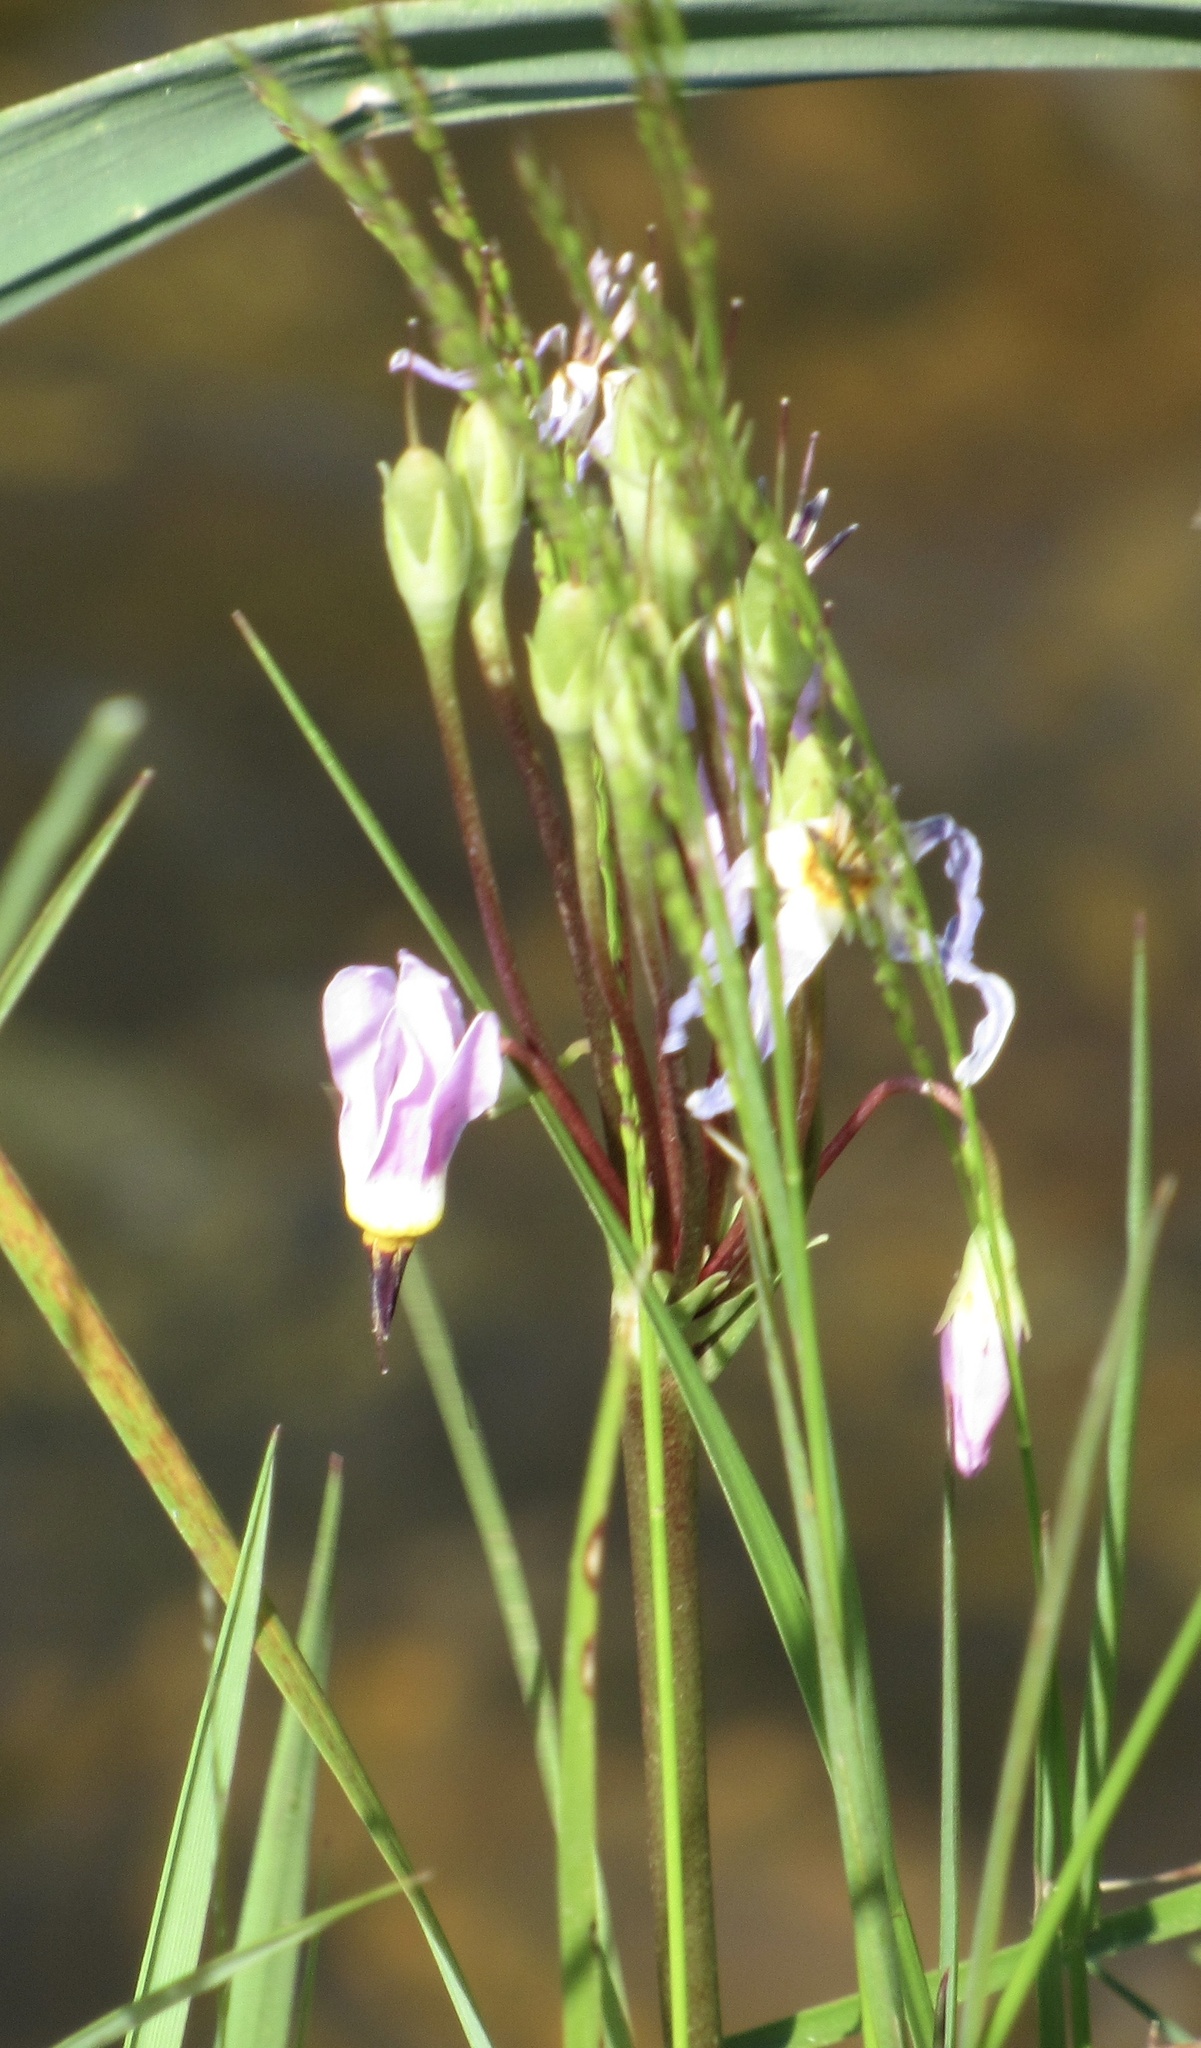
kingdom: Plantae
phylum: Tracheophyta
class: Magnoliopsida
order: Ericales
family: Primulaceae
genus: Dodecatheon
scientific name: Dodecatheon pulchellum
